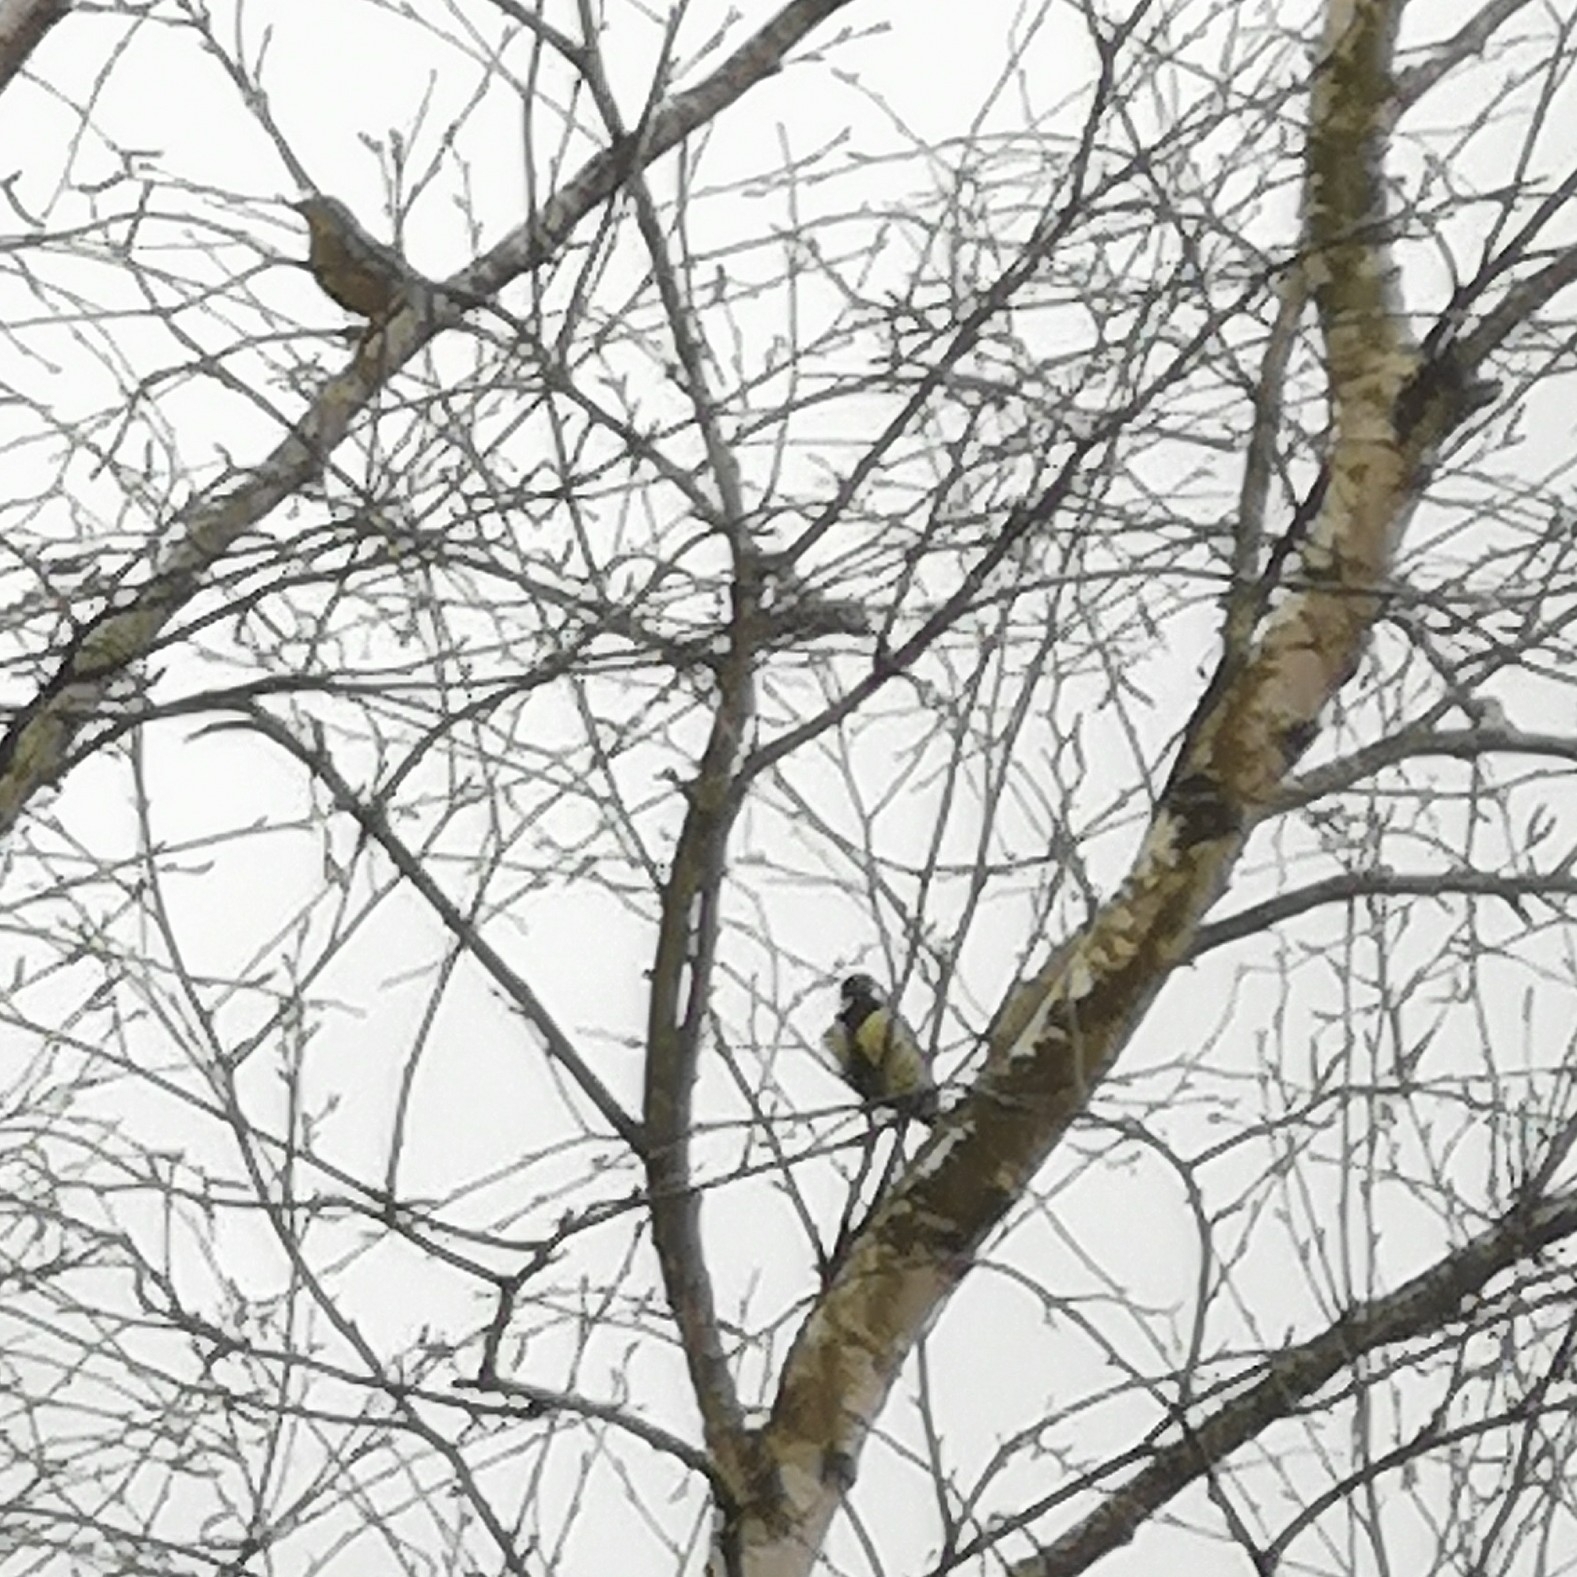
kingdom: Animalia
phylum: Chordata
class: Aves
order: Passeriformes
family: Paridae
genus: Parus
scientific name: Parus major
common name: Great tit
